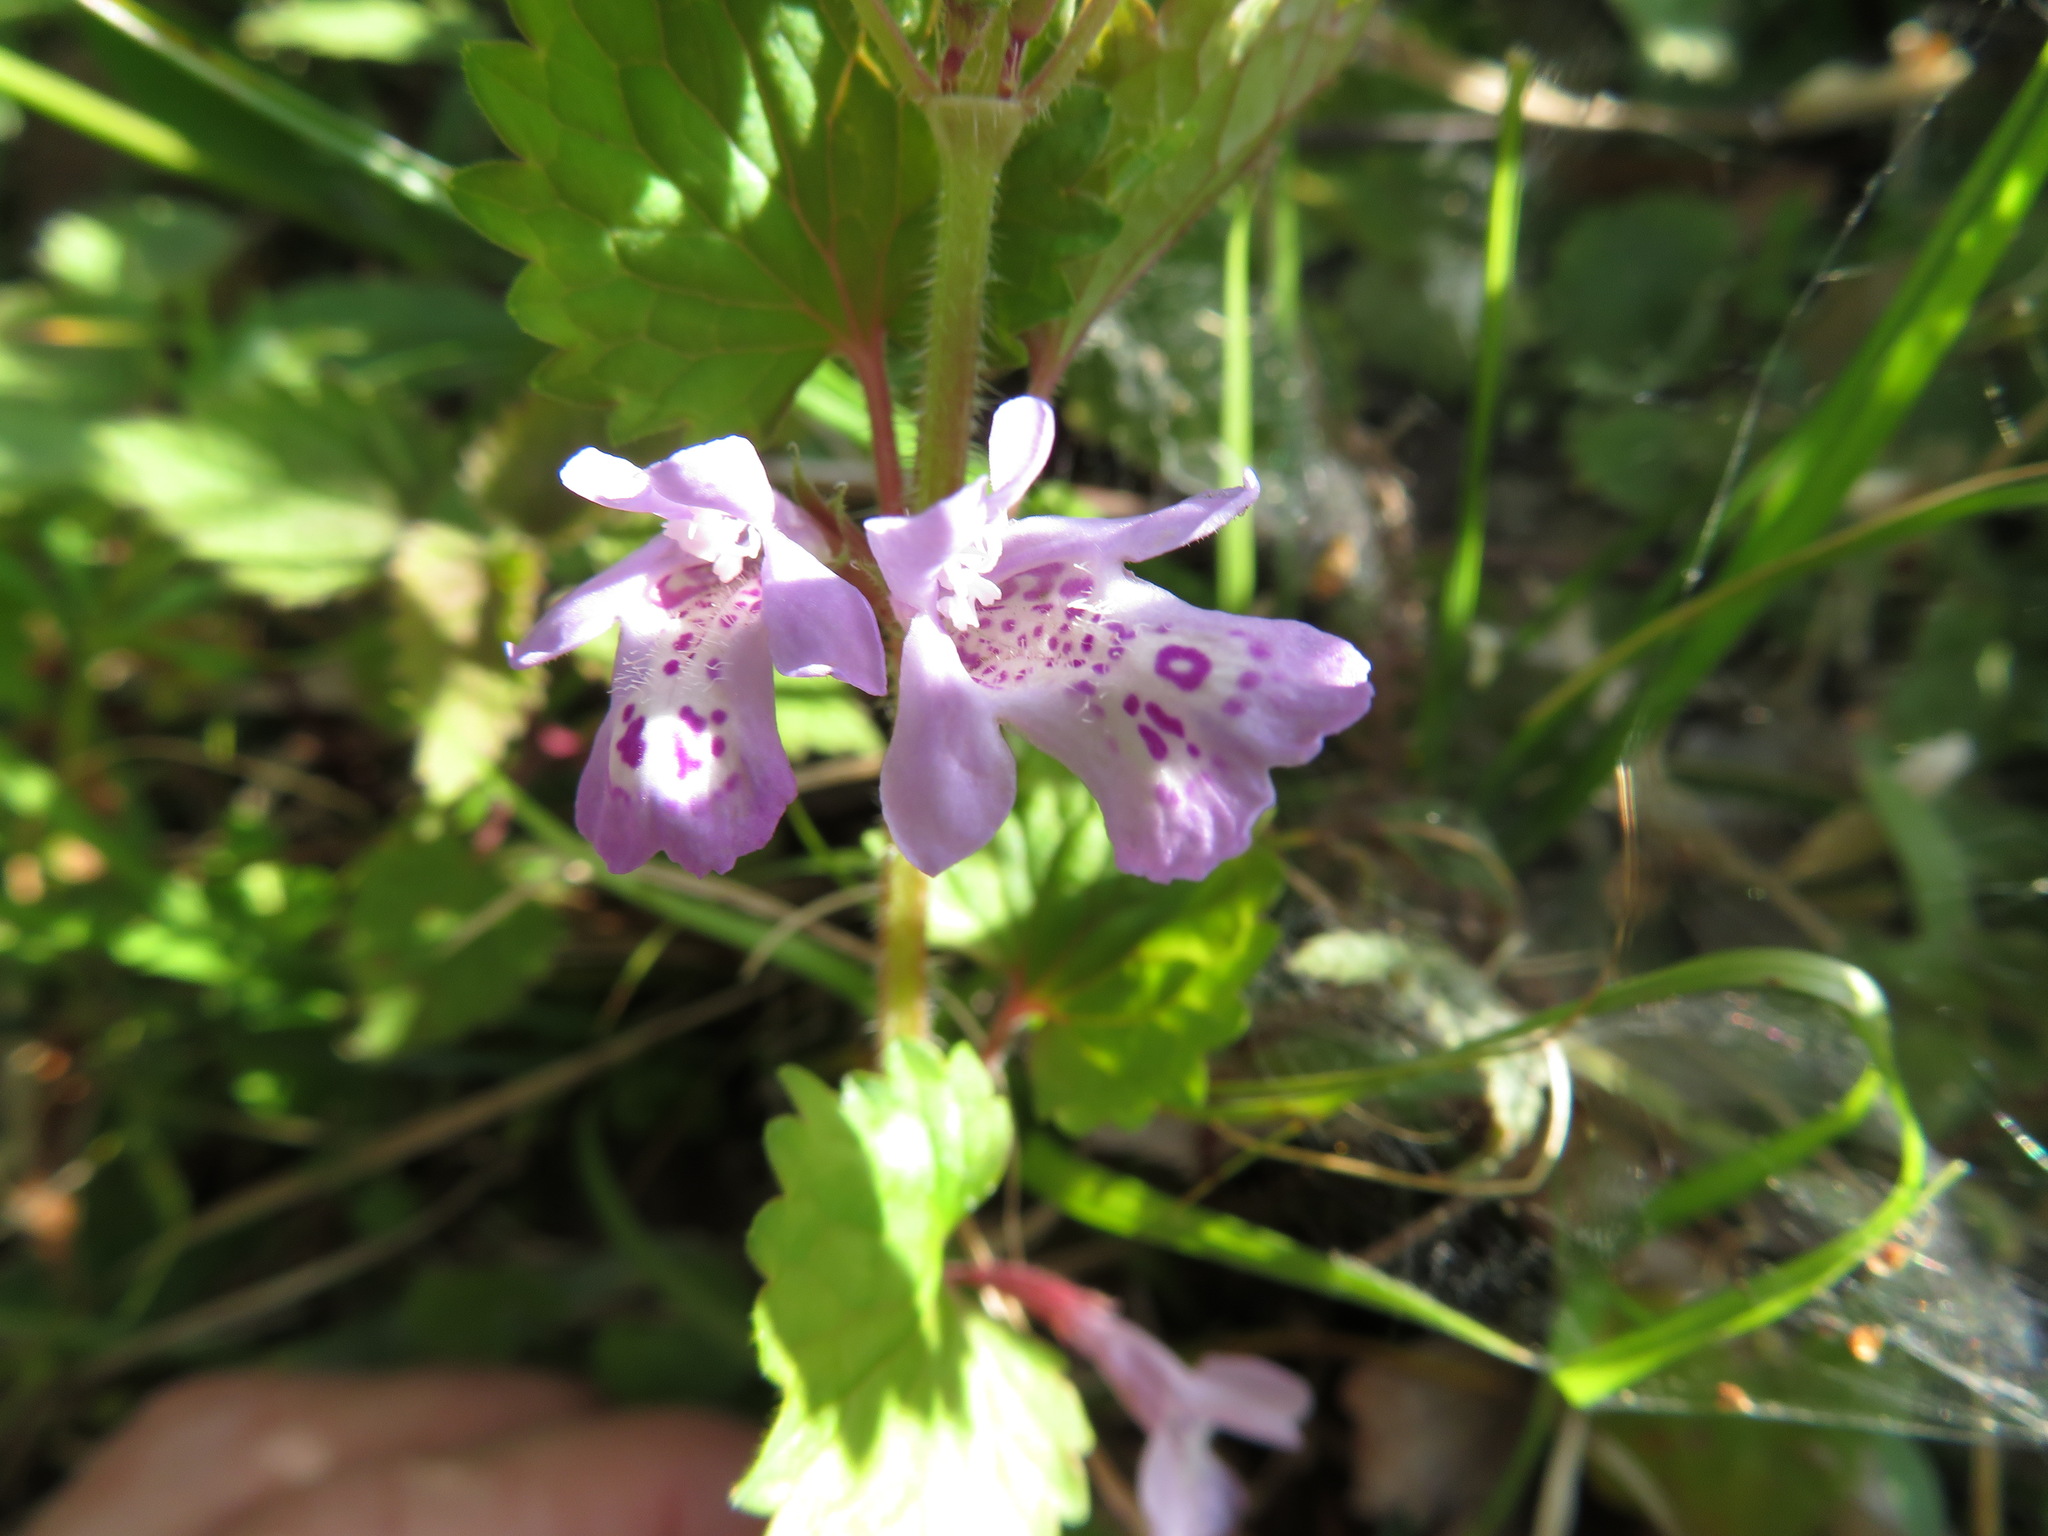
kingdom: Plantae
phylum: Tracheophyta
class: Magnoliopsida
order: Lamiales
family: Lamiaceae
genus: Glechoma
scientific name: Glechoma grandis
